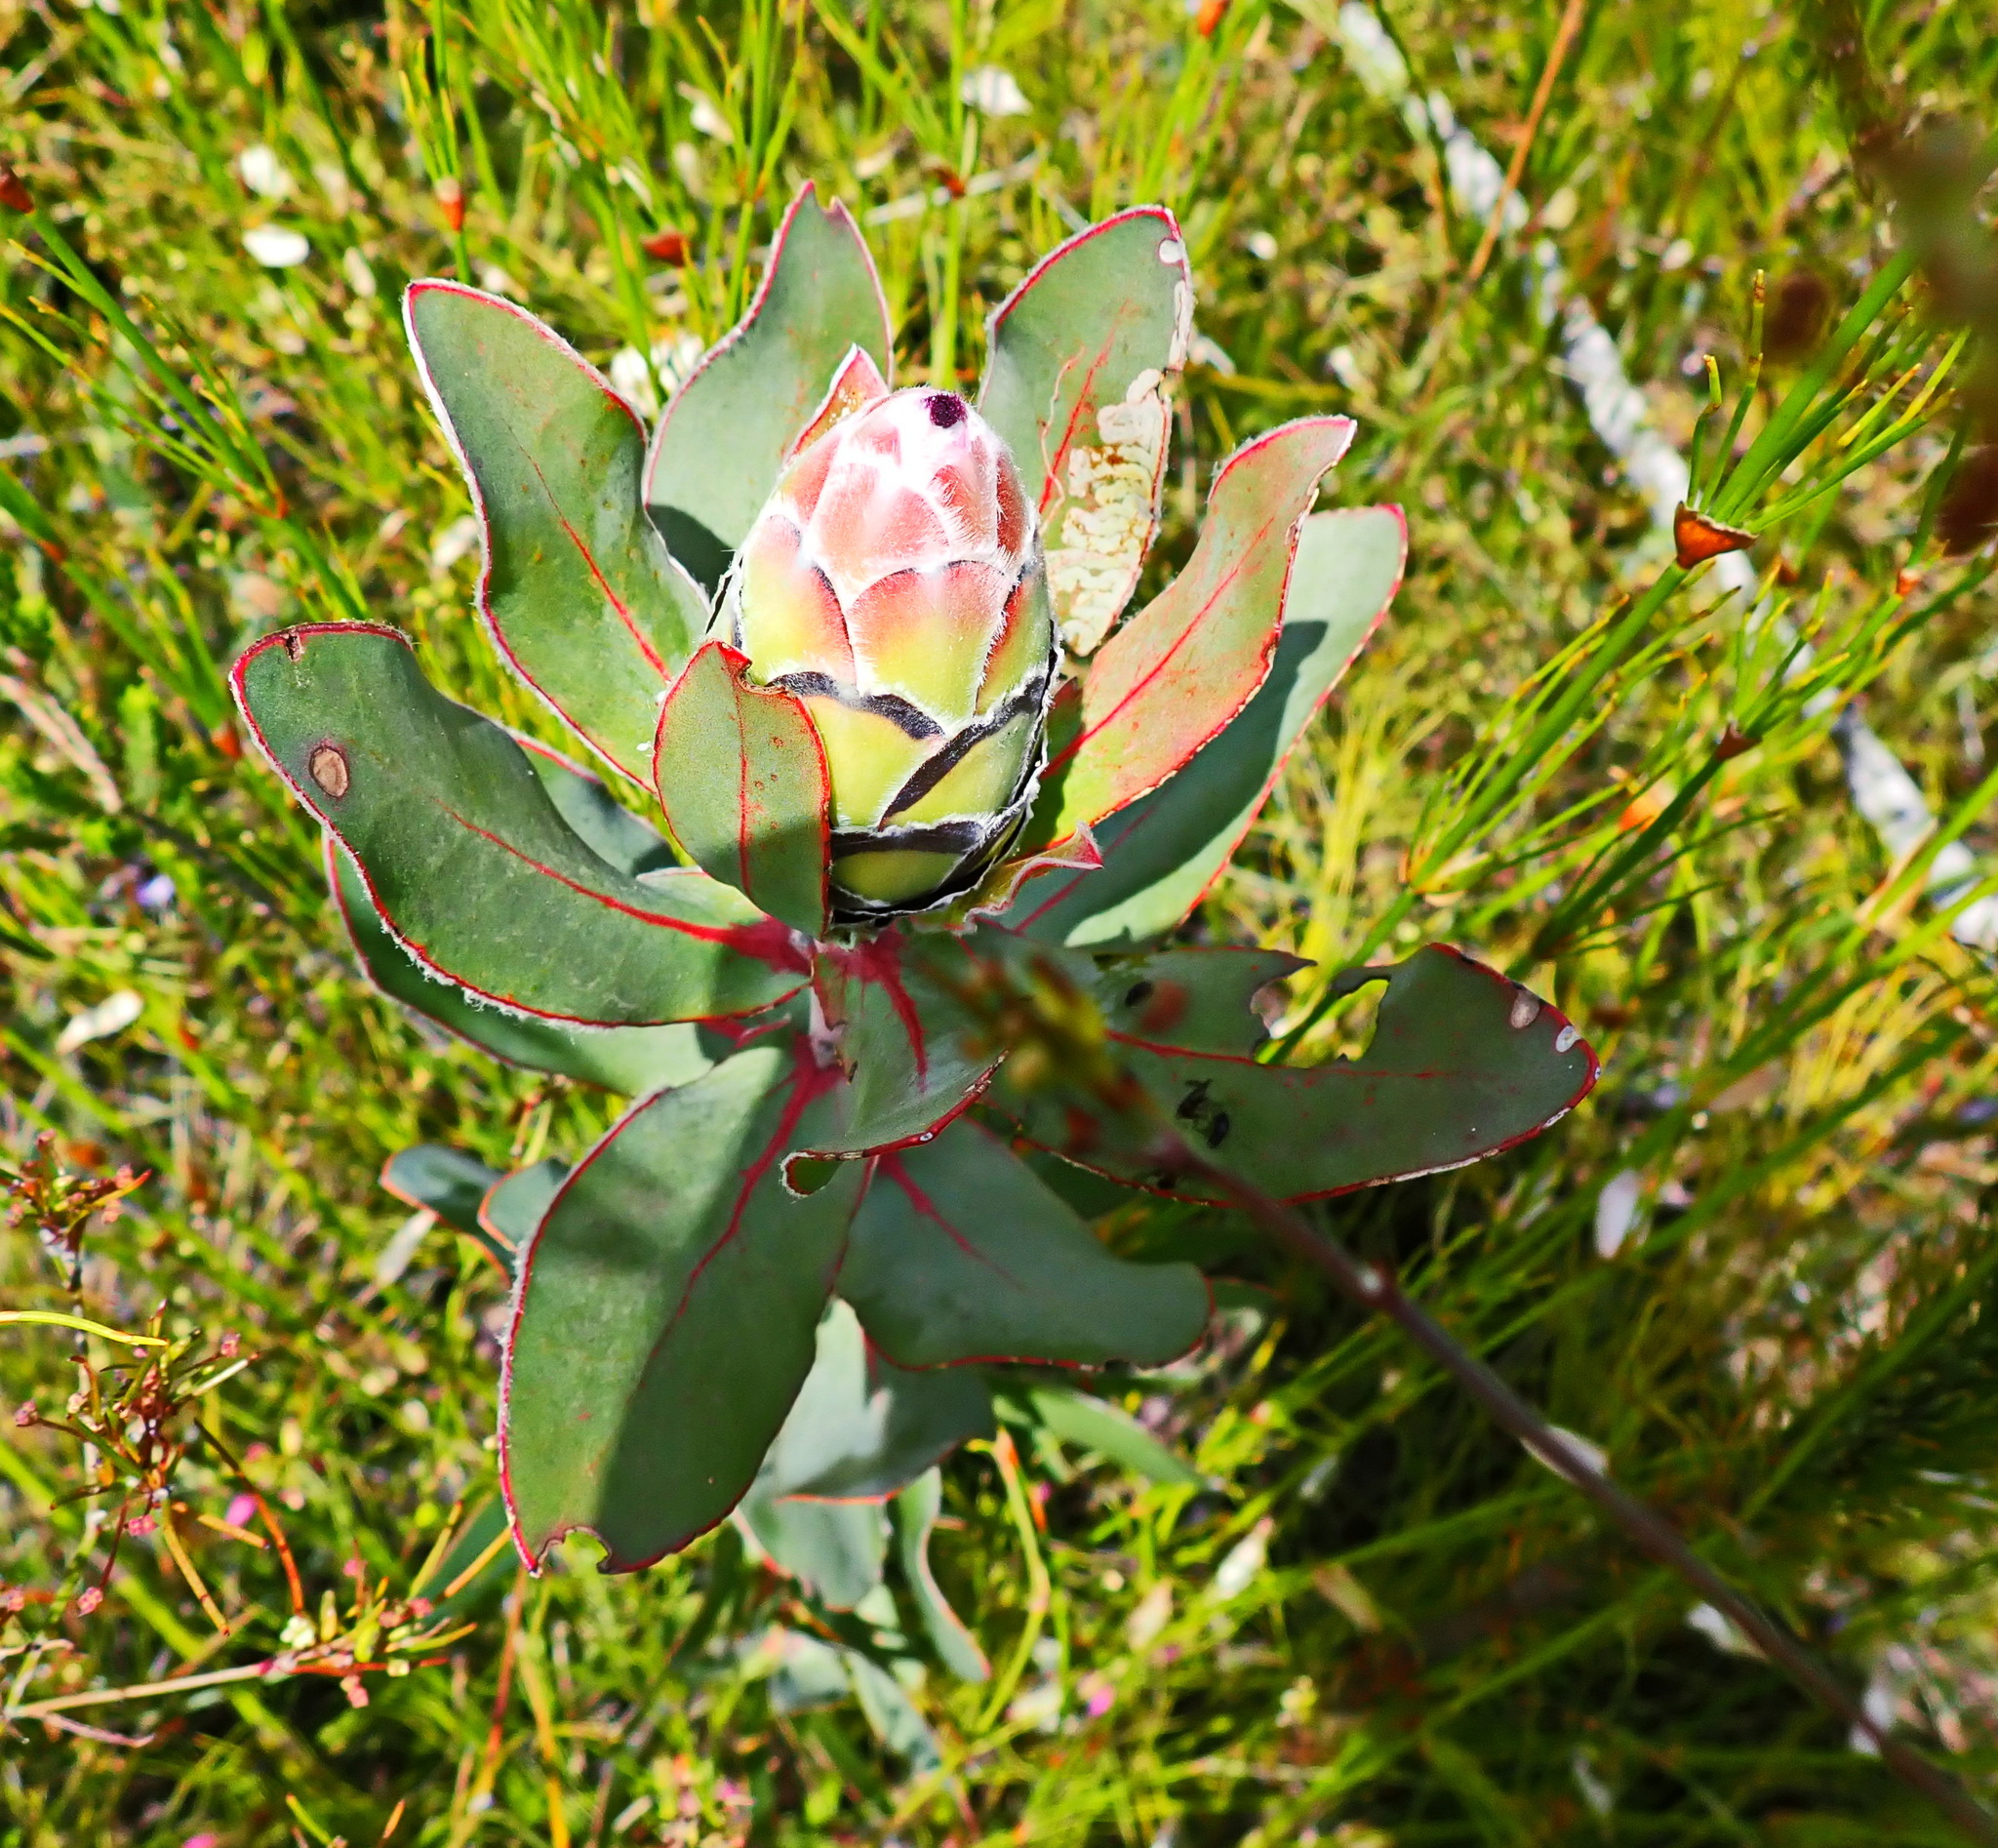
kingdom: Plantae
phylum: Tracheophyta
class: Magnoliopsida
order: Proteales
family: Proteaceae
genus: Protea
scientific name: Protea eximia
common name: Broad-leaved sugarbush
